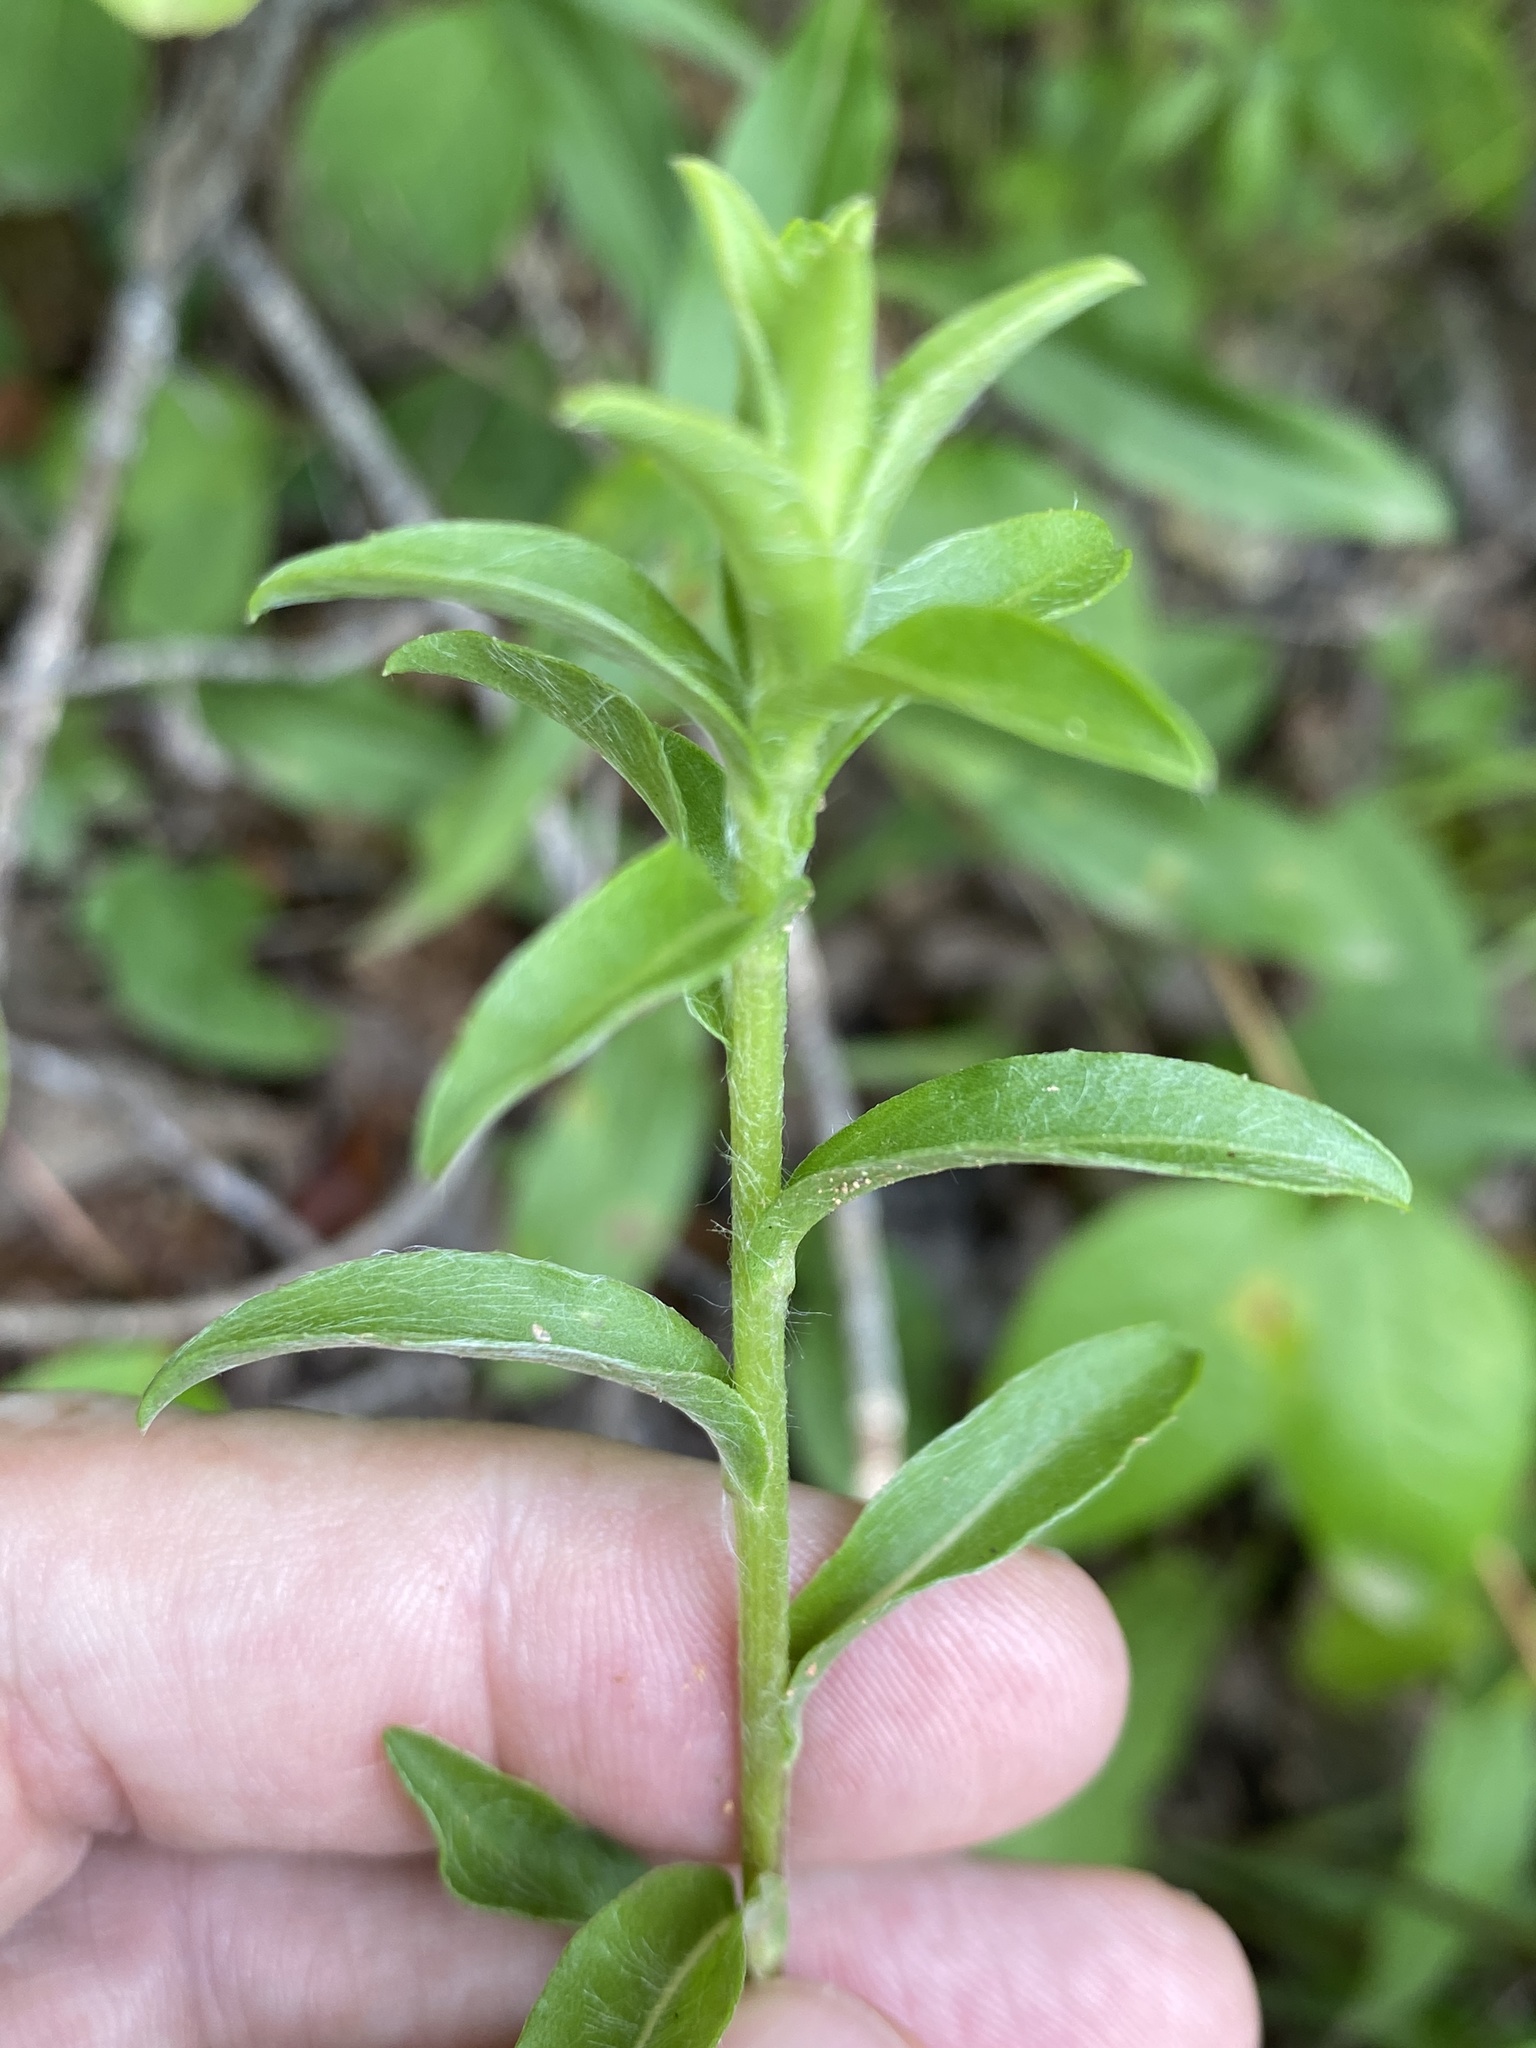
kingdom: Plantae
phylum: Tracheophyta
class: Magnoliopsida
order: Asterales
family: Asteraceae
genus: Chrysopsis
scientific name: Chrysopsis mariana
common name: Maryland golden-aster
